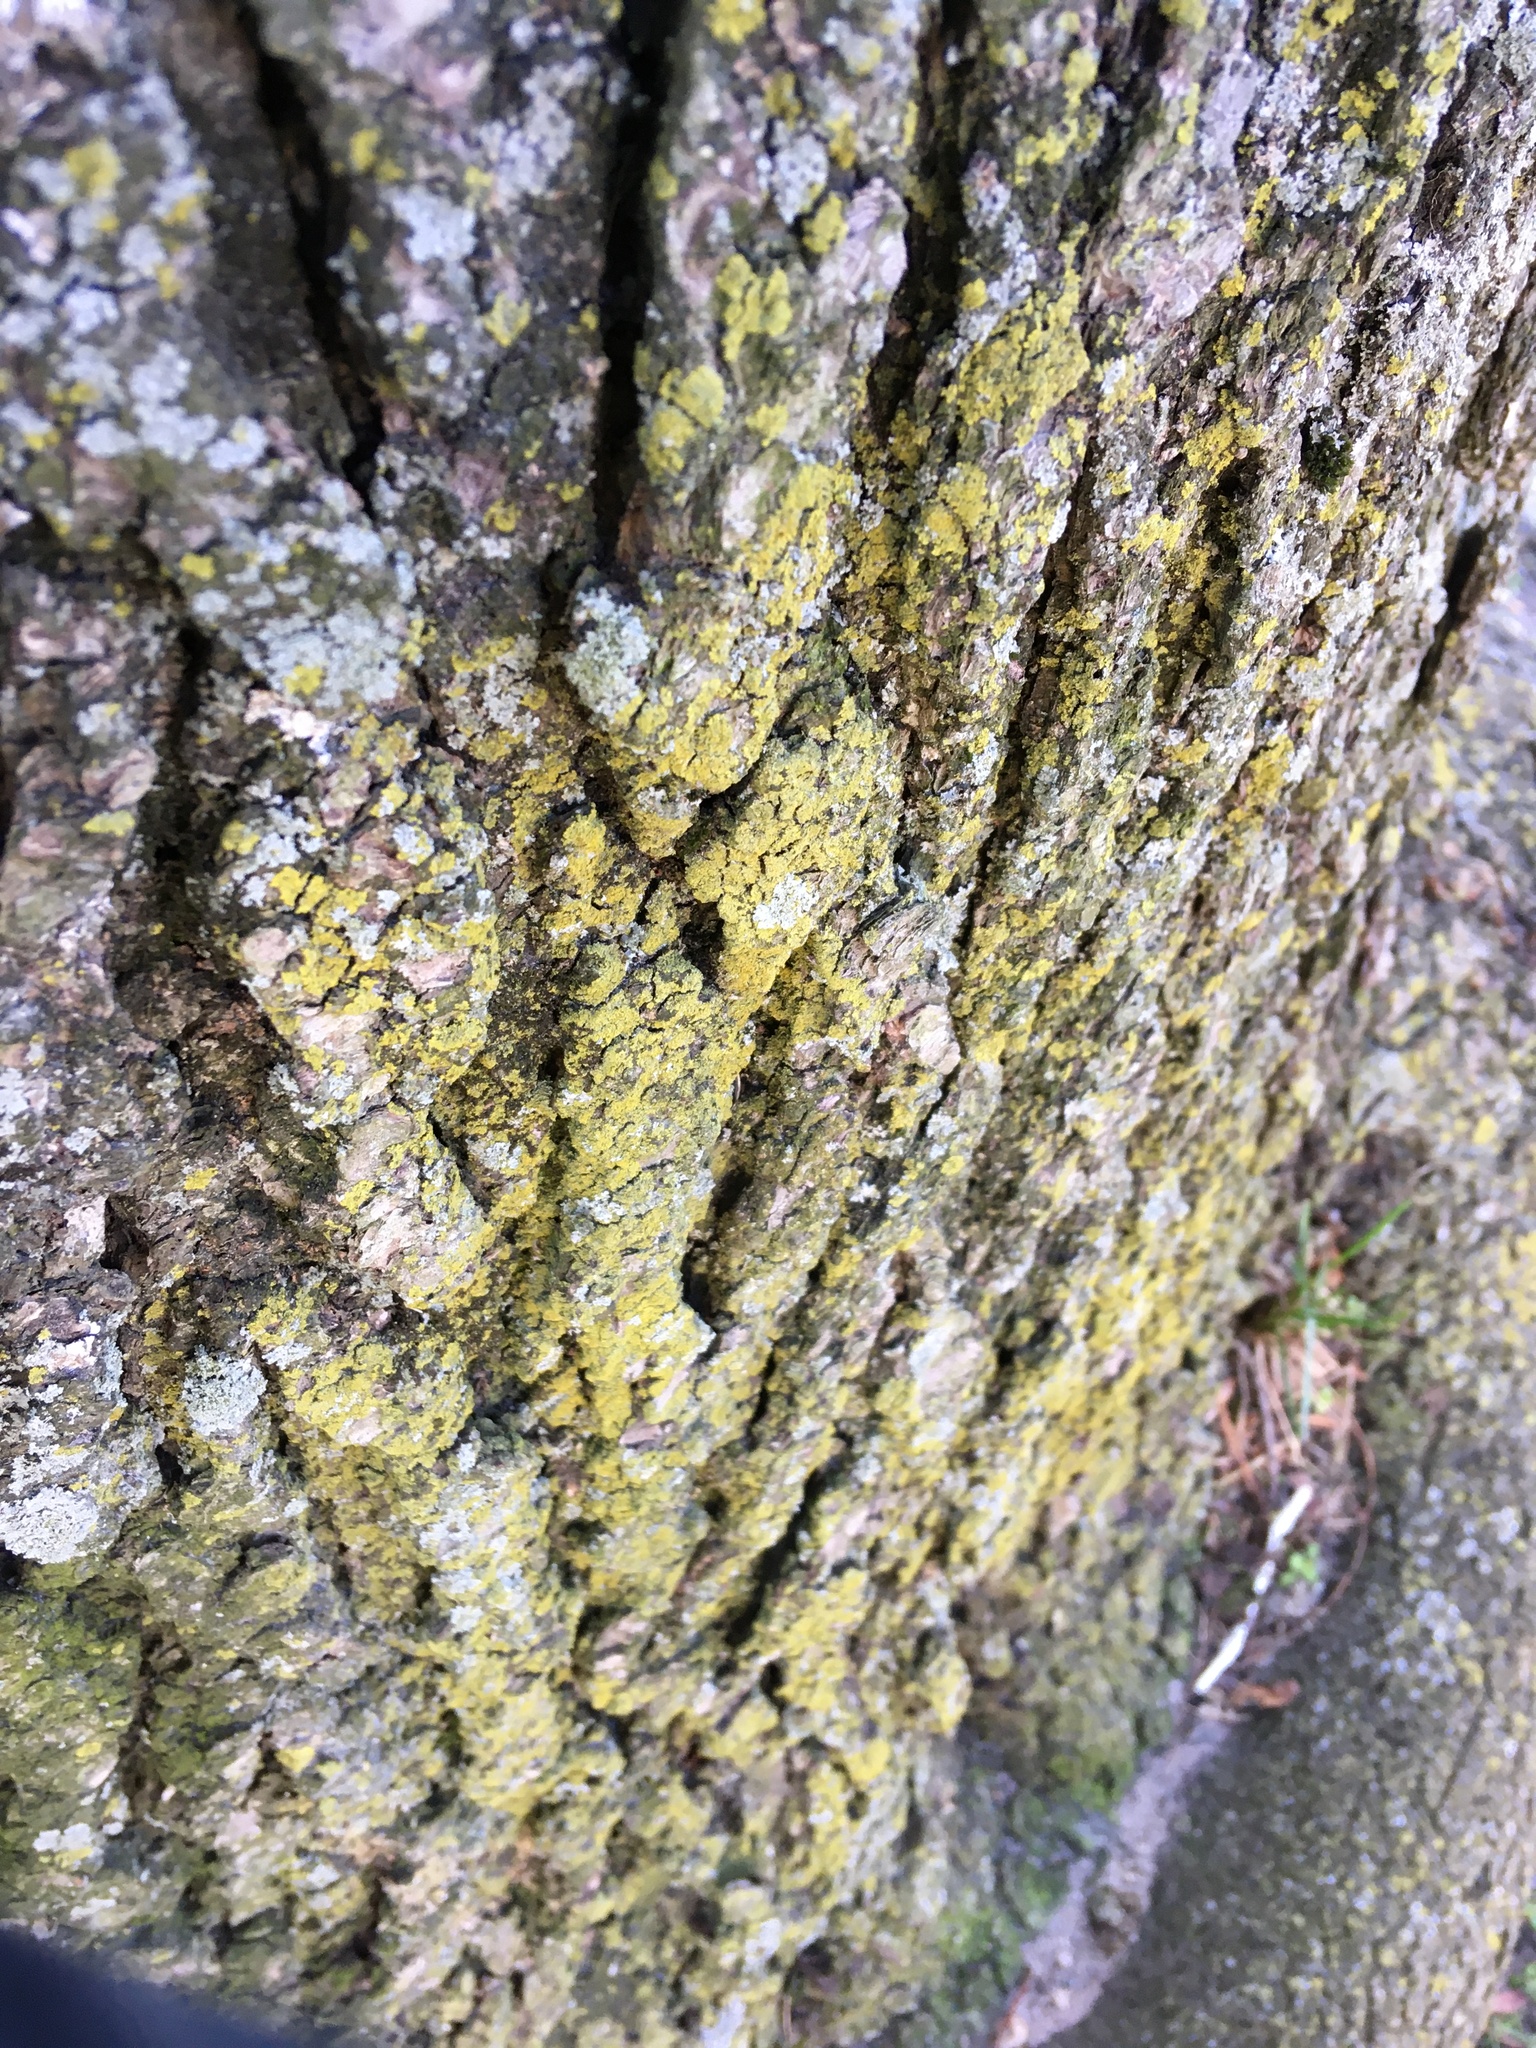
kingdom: Fungi
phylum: Ascomycota
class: Candelariomycetes
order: Candelariales
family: Candelariaceae
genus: Candelaria
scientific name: Candelaria concolor
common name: Candleflame lichen
